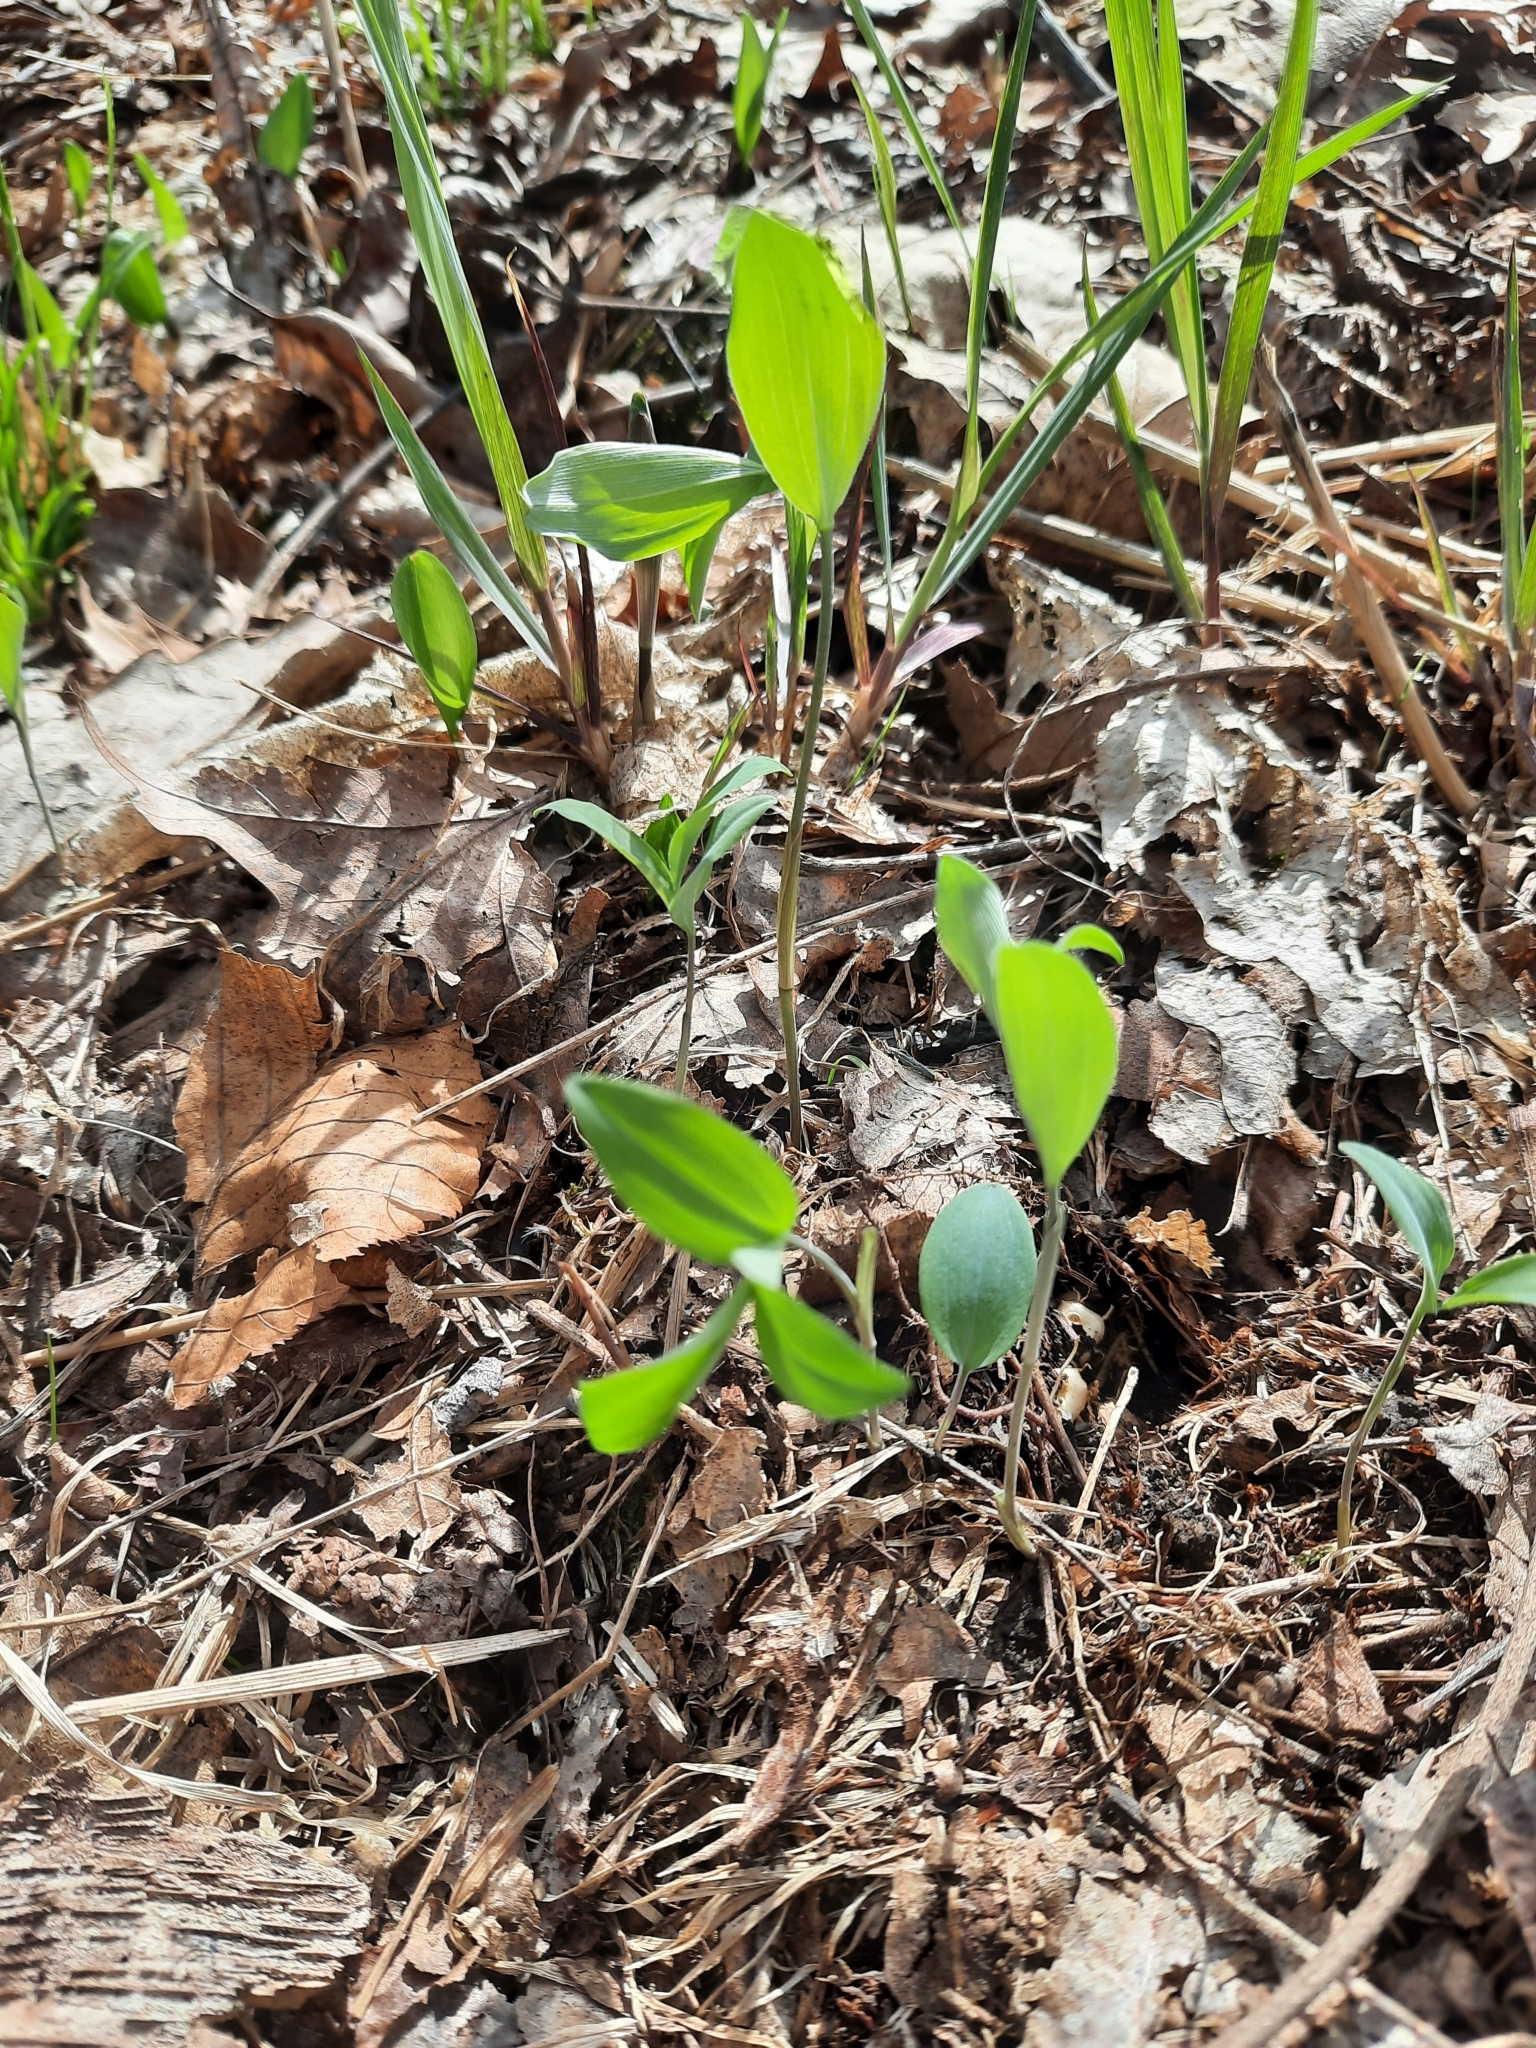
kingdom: Plantae
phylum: Tracheophyta
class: Liliopsida
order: Asparagales
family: Asparagaceae
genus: Polygonatum
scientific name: Polygonatum pubescens
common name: Downy solomon's seal
